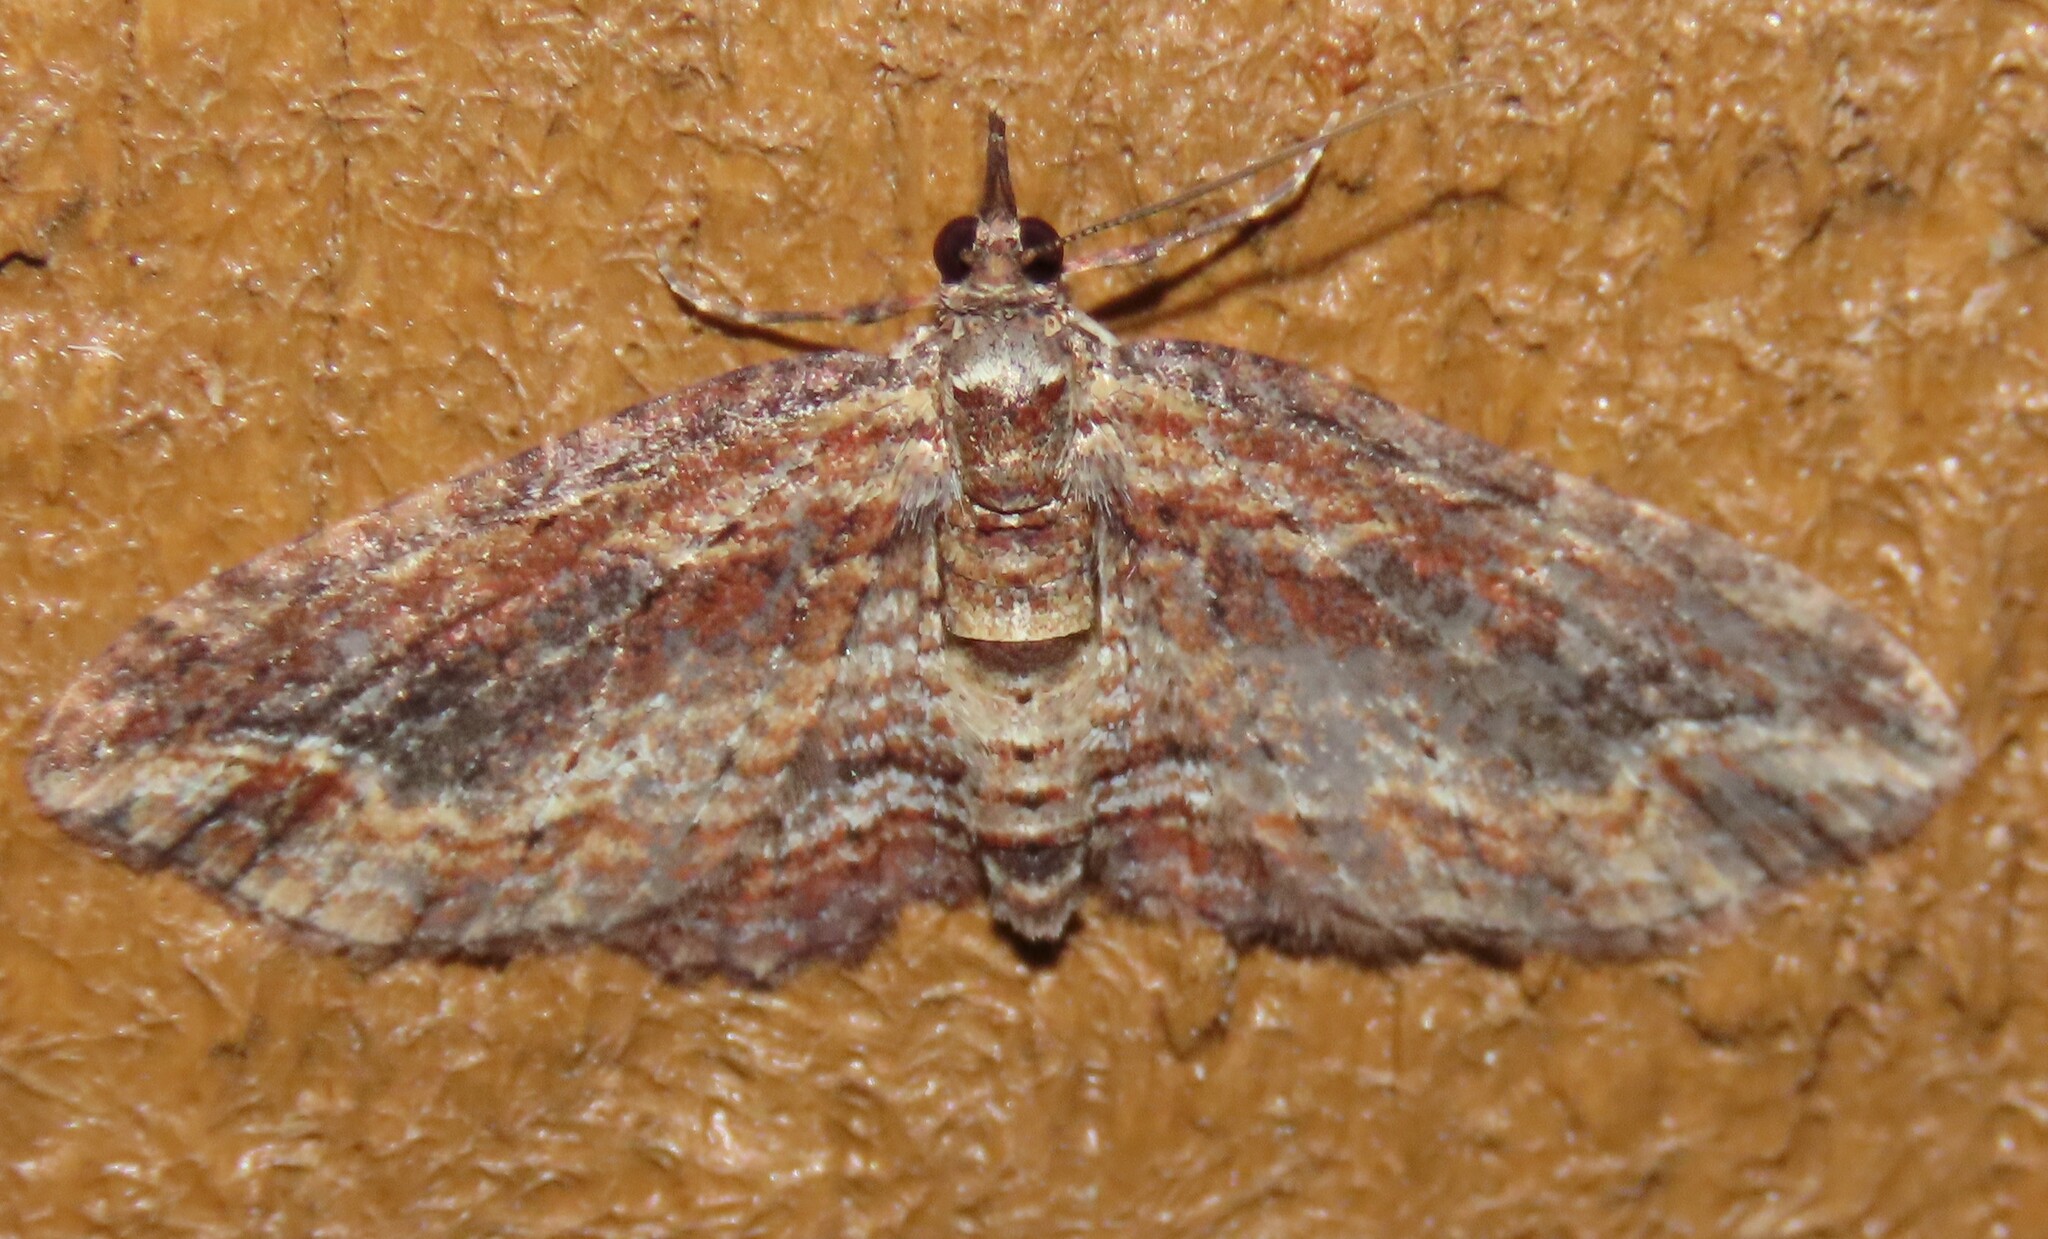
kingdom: Animalia
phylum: Arthropoda
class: Insecta
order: Lepidoptera
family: Geometridae
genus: Chloroclystis
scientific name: Chloroclystis filata
